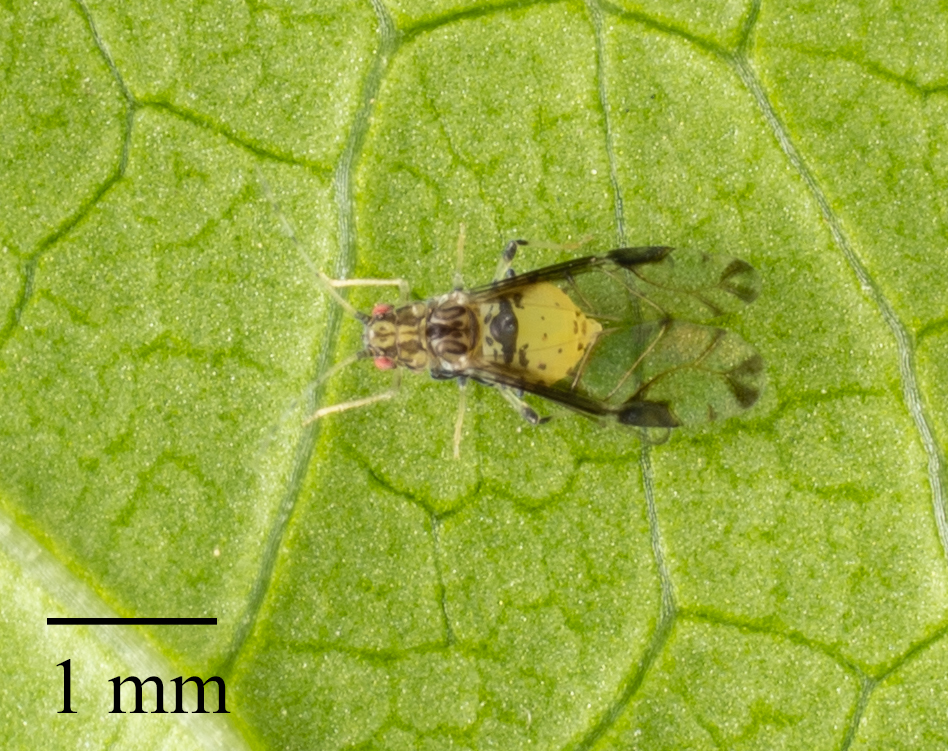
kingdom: Animalia
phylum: Arthropoda
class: Insecta
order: Hemiptera
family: Aphididae
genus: Sarucallis
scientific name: Sarucallis kahawaluokalani
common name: Crapemyrtle aphid
